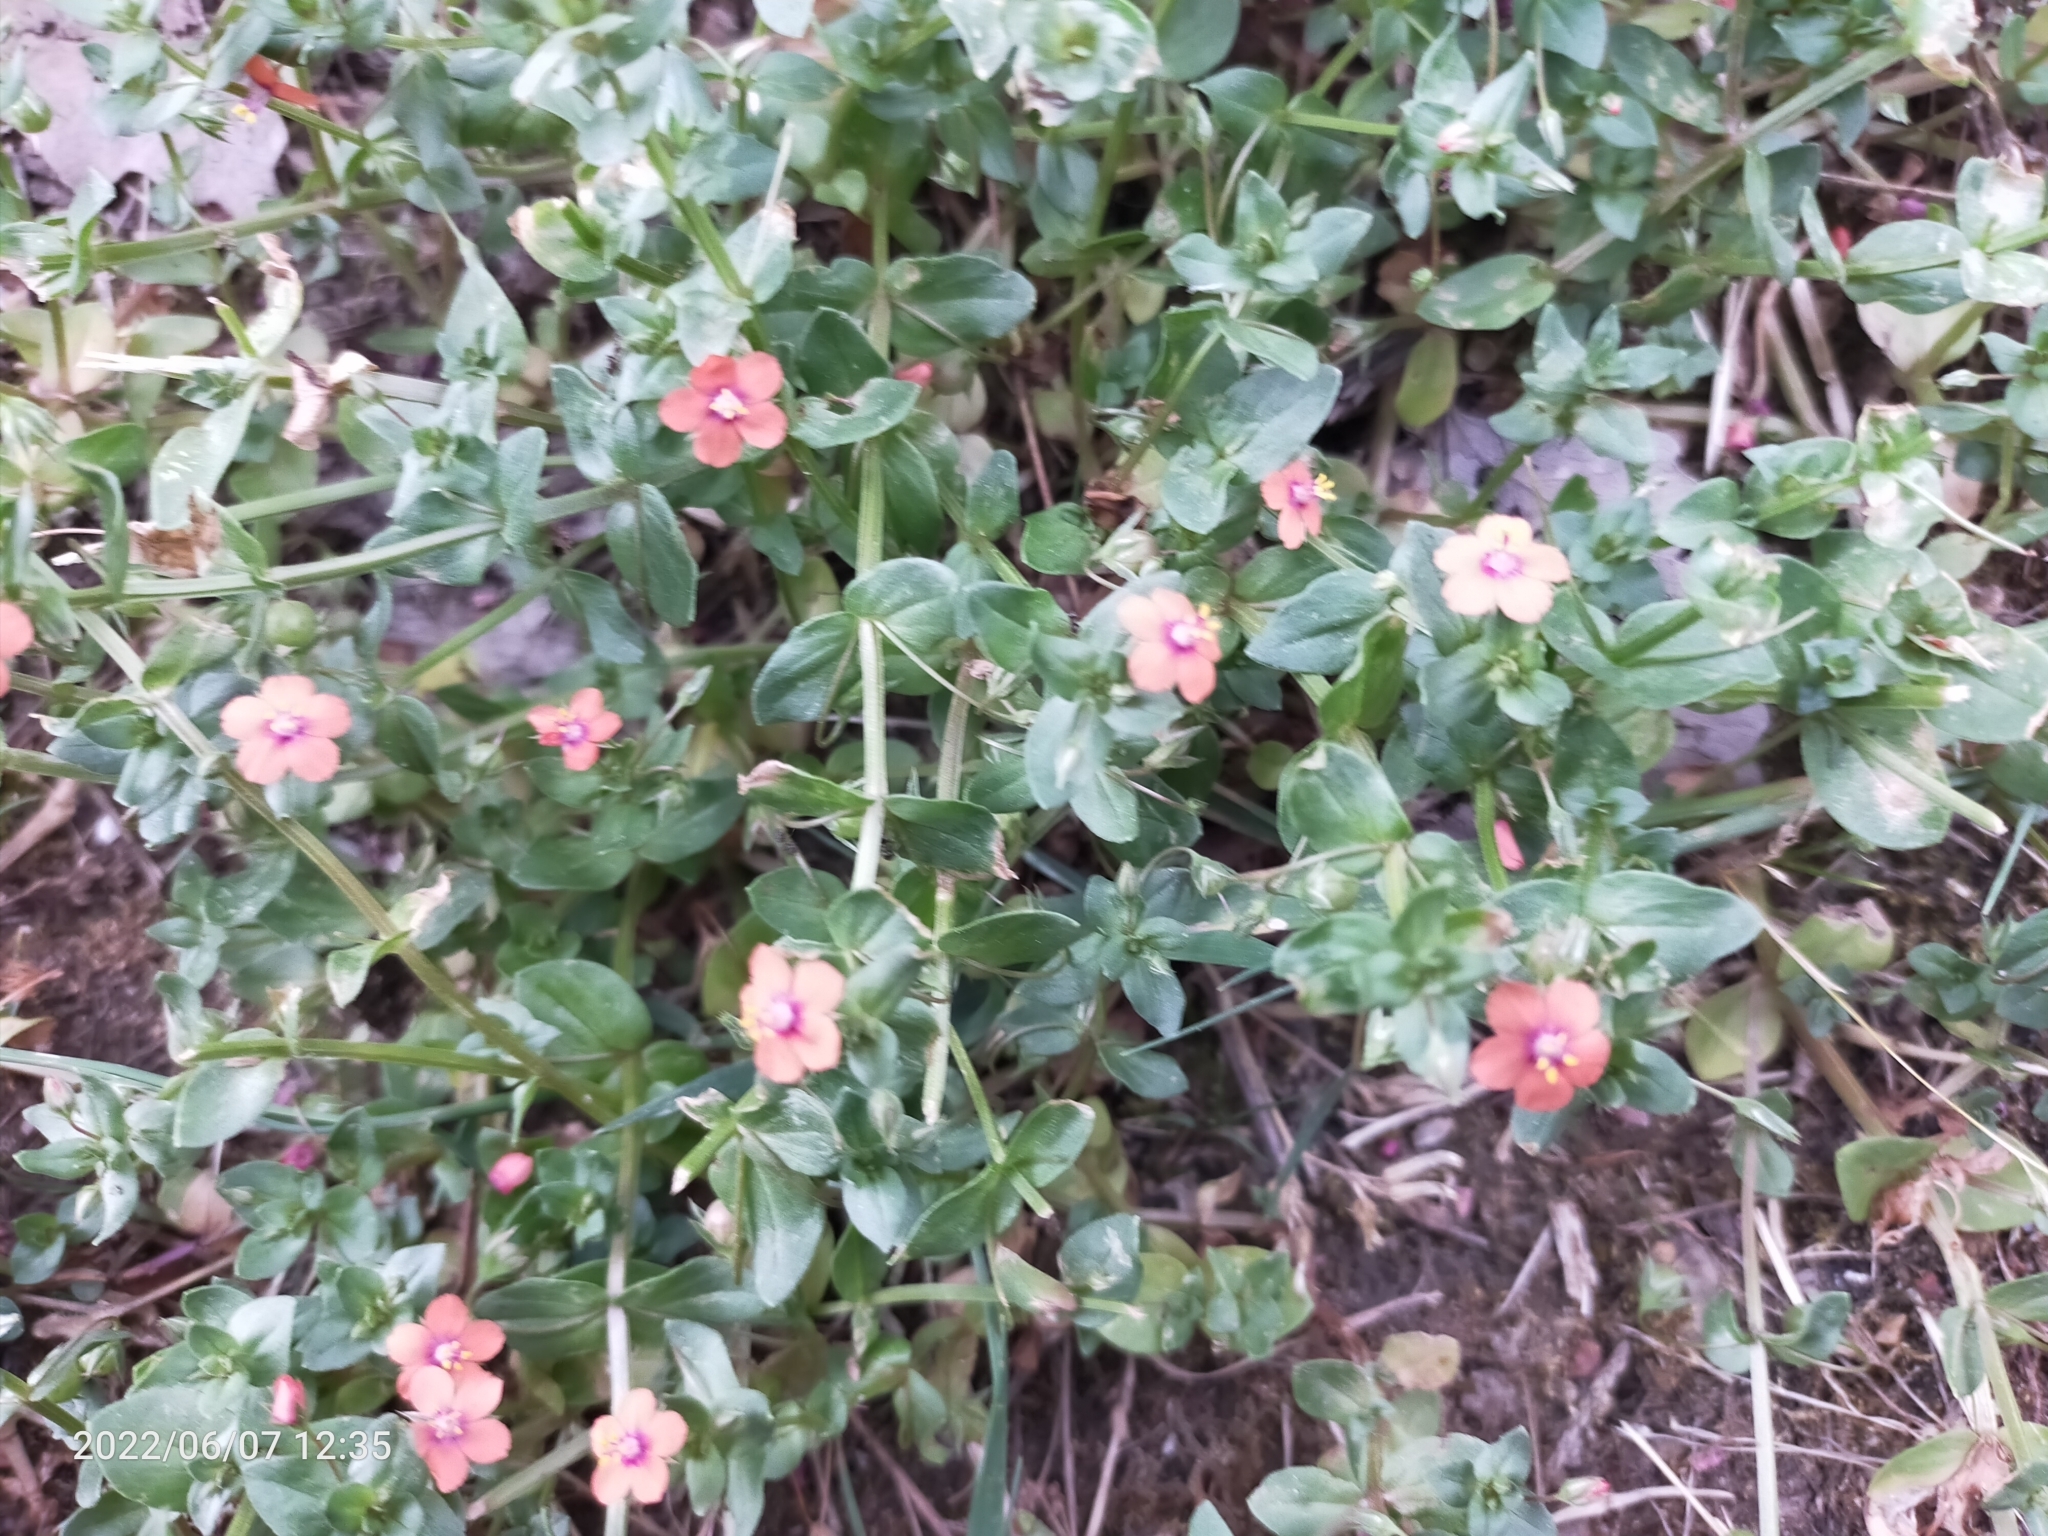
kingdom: Plantae
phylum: Tracheophyta
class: Magnoliopsida
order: Asterales
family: Campanulaceae
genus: Lobelia
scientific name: Lobelia
